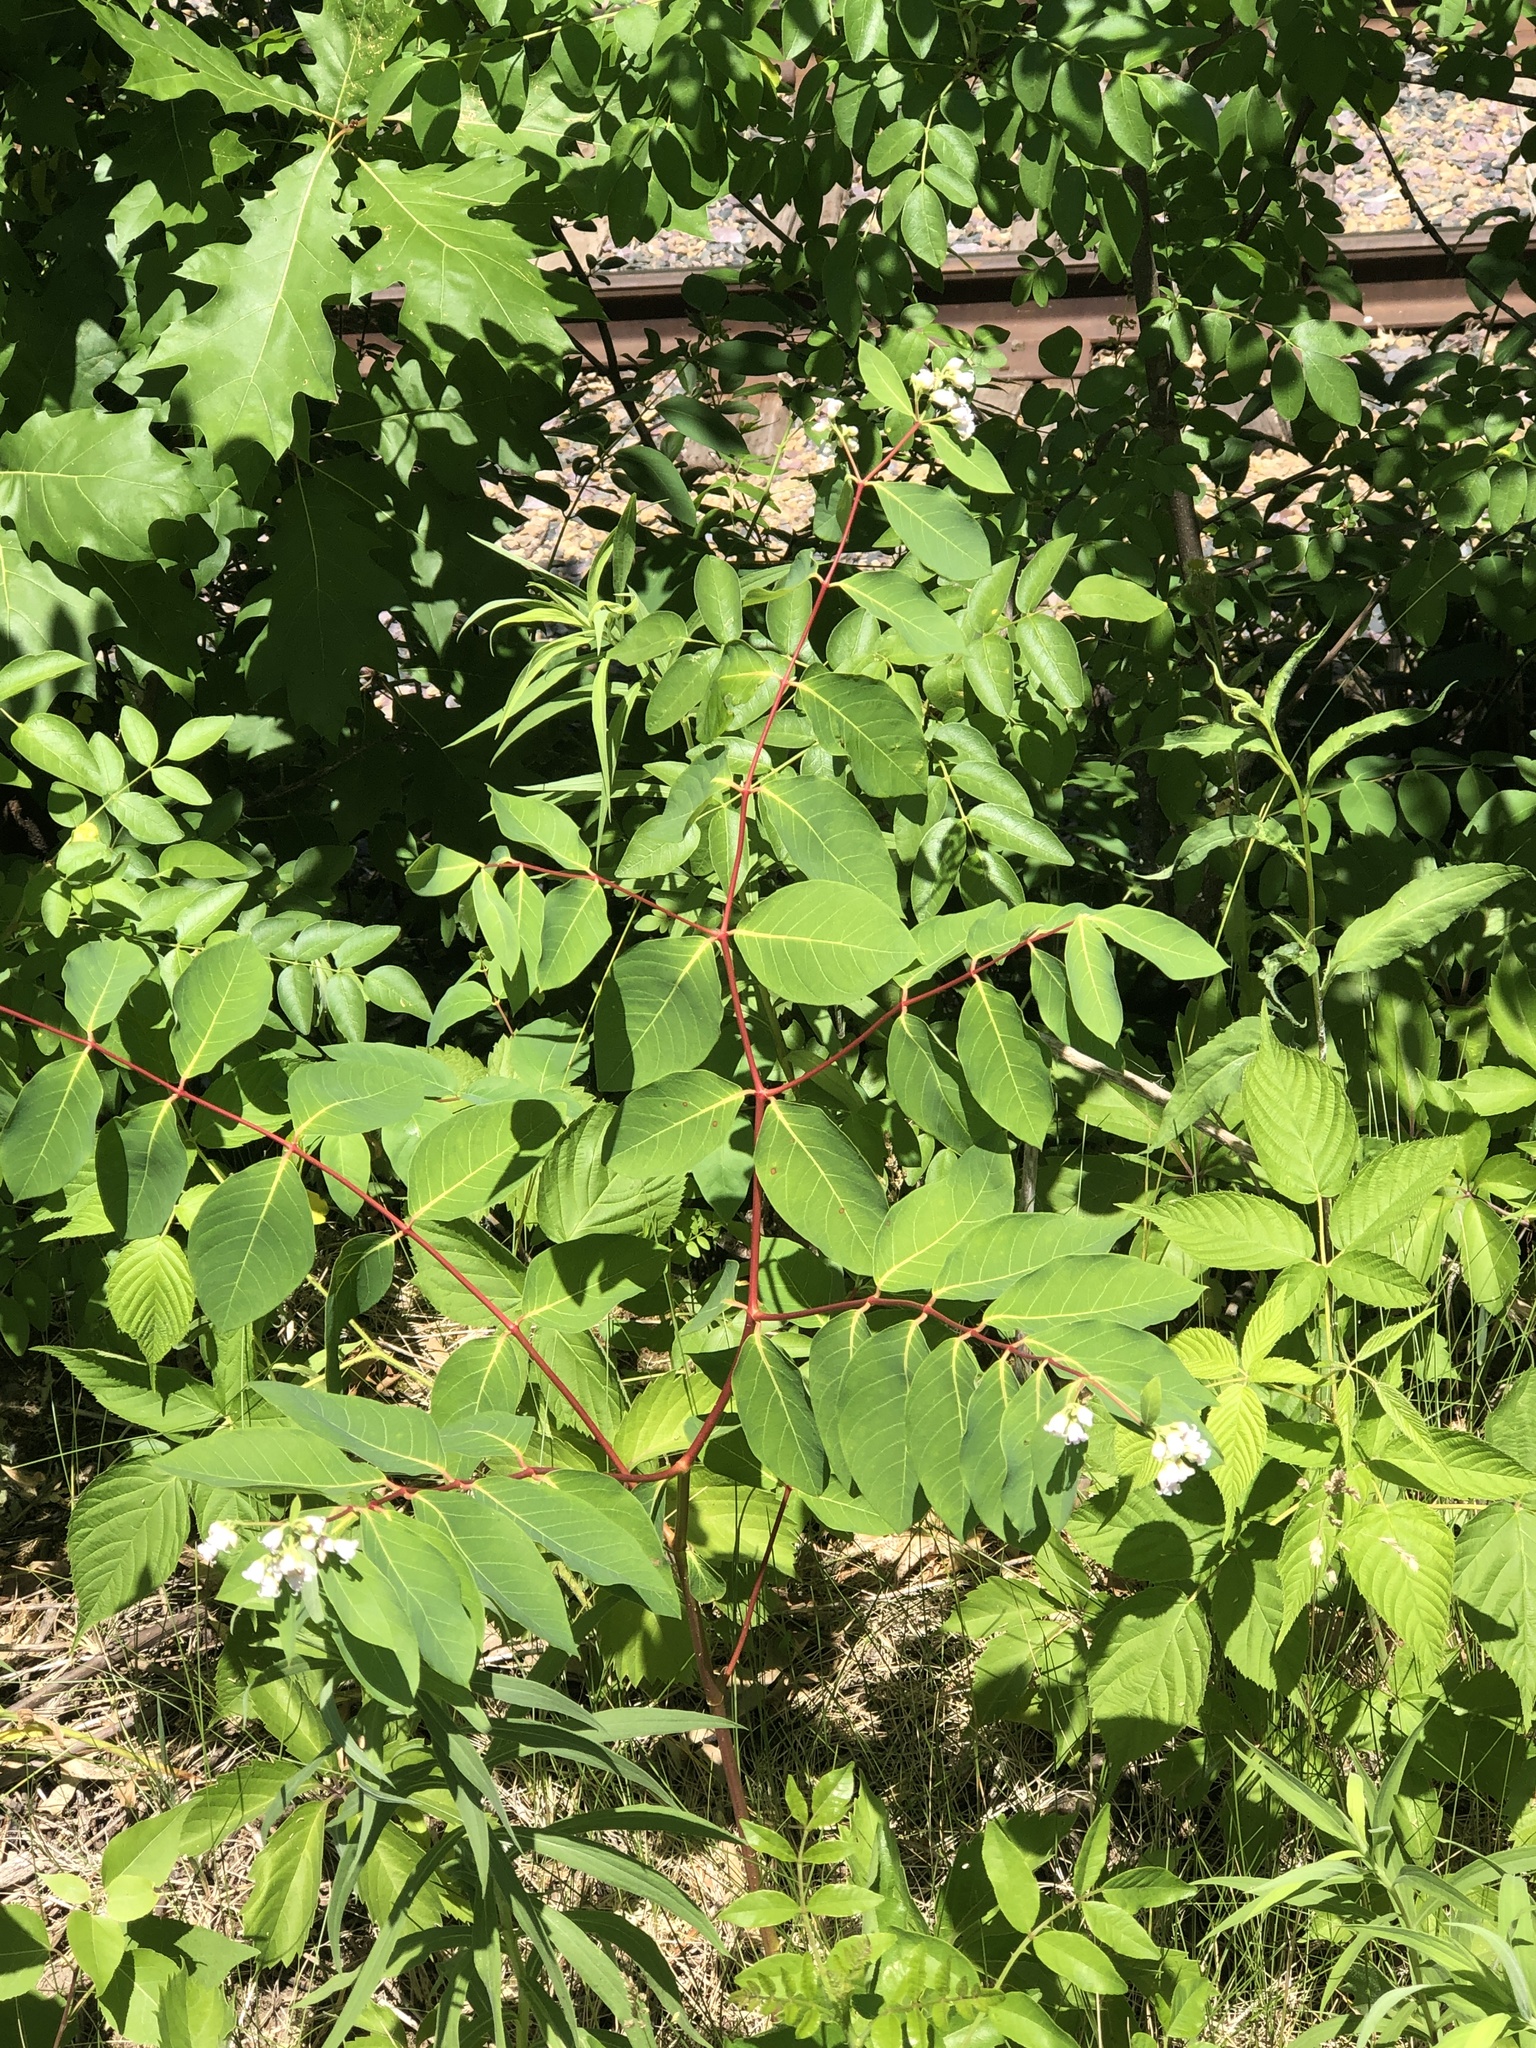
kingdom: Plantae
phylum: Tracheophyta
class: Magnoliopsida
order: Gentianales
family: Apocynaceae
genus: Apocynum
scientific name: Apocynum androsaemifolium
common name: Spreading dogbane
